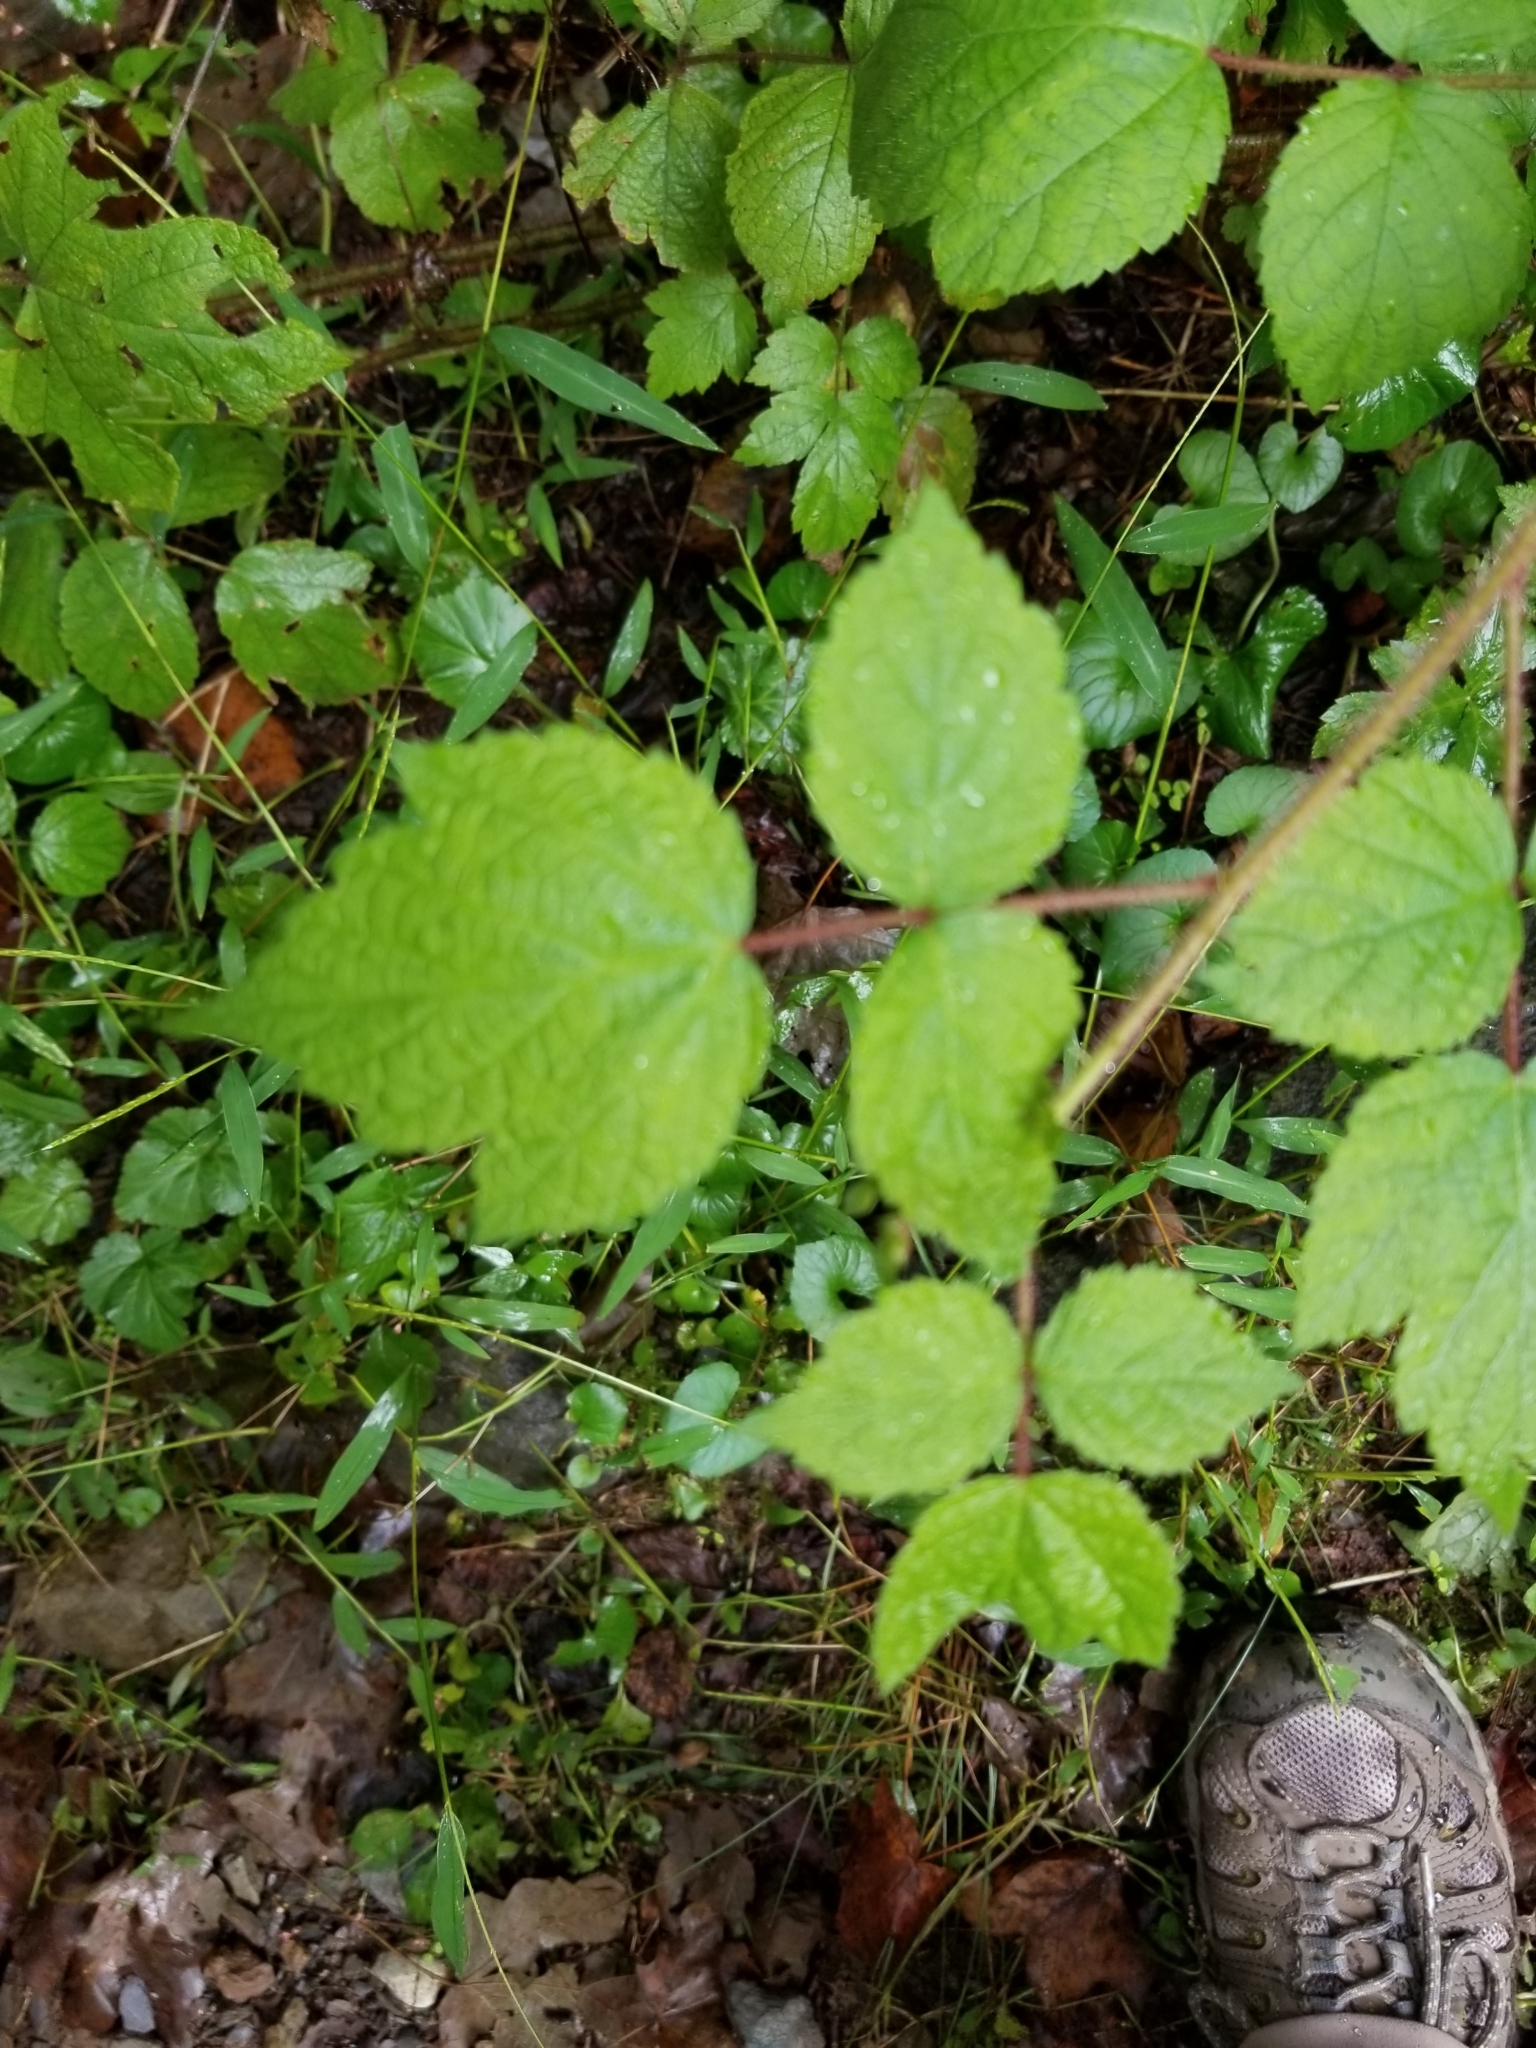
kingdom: Plantae
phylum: Tracheophyta
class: Magnoliopsida
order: Rosales
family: Rosaceae
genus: Rubus
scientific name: Rubus phoenicolasius
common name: Japanese wineberry
